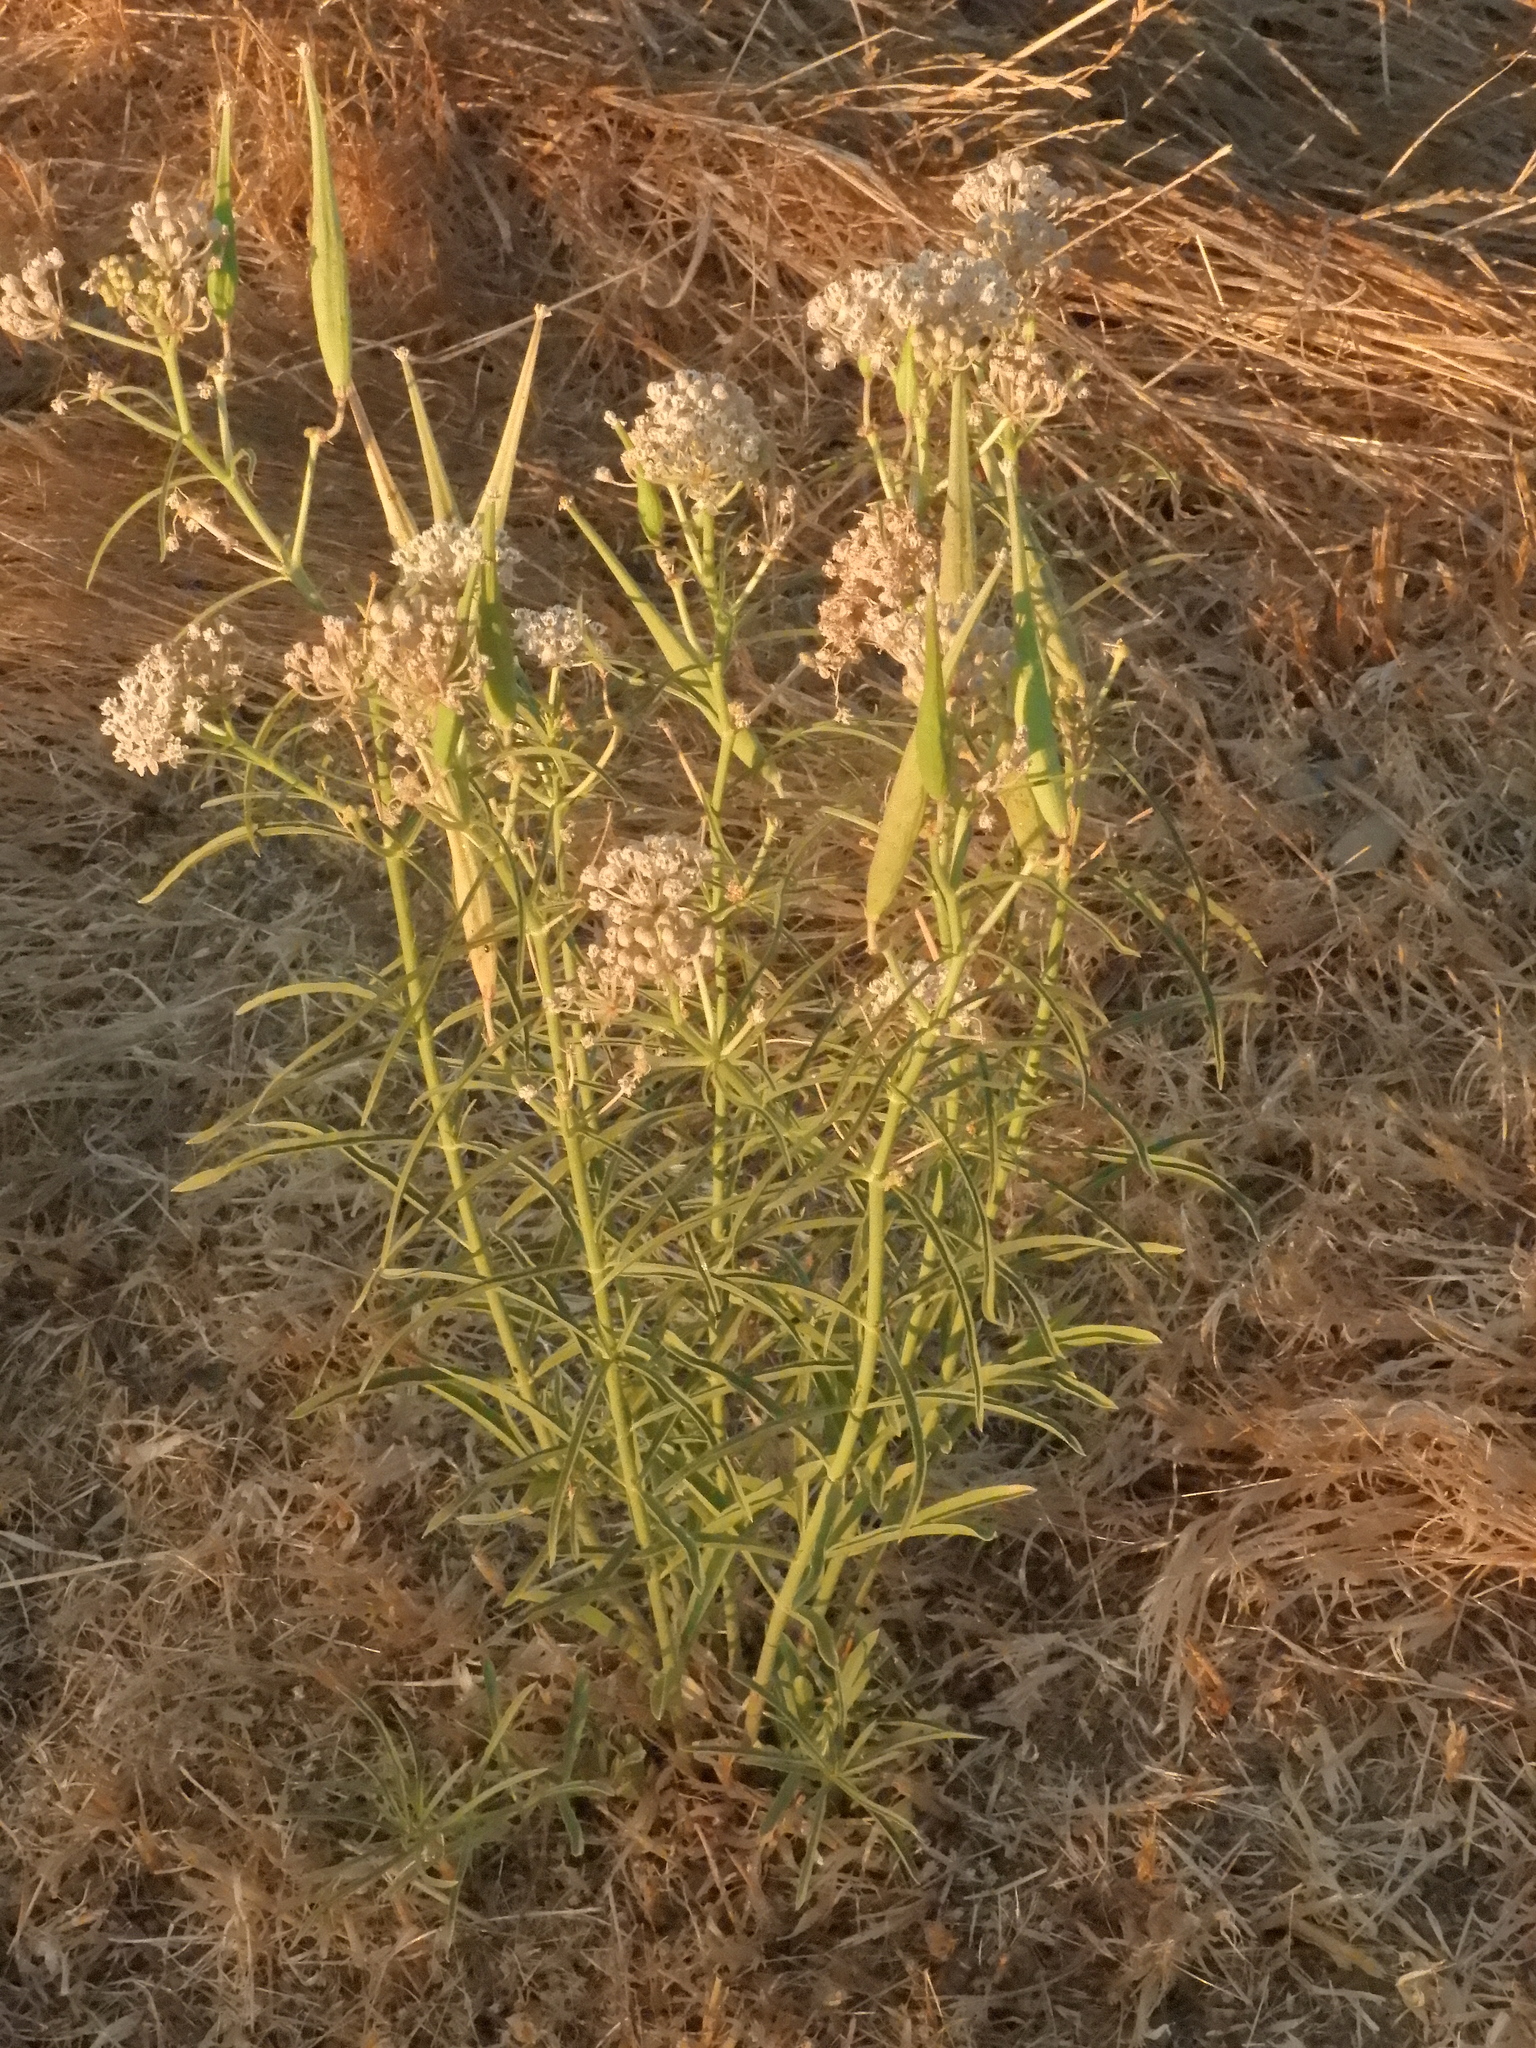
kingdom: Plantae
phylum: Tracheophyta
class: Magnoliopsida
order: Gentianales
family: Apocynaceae
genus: Asclepias
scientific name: Asclepias fascicularis
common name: Mexican milkweed
